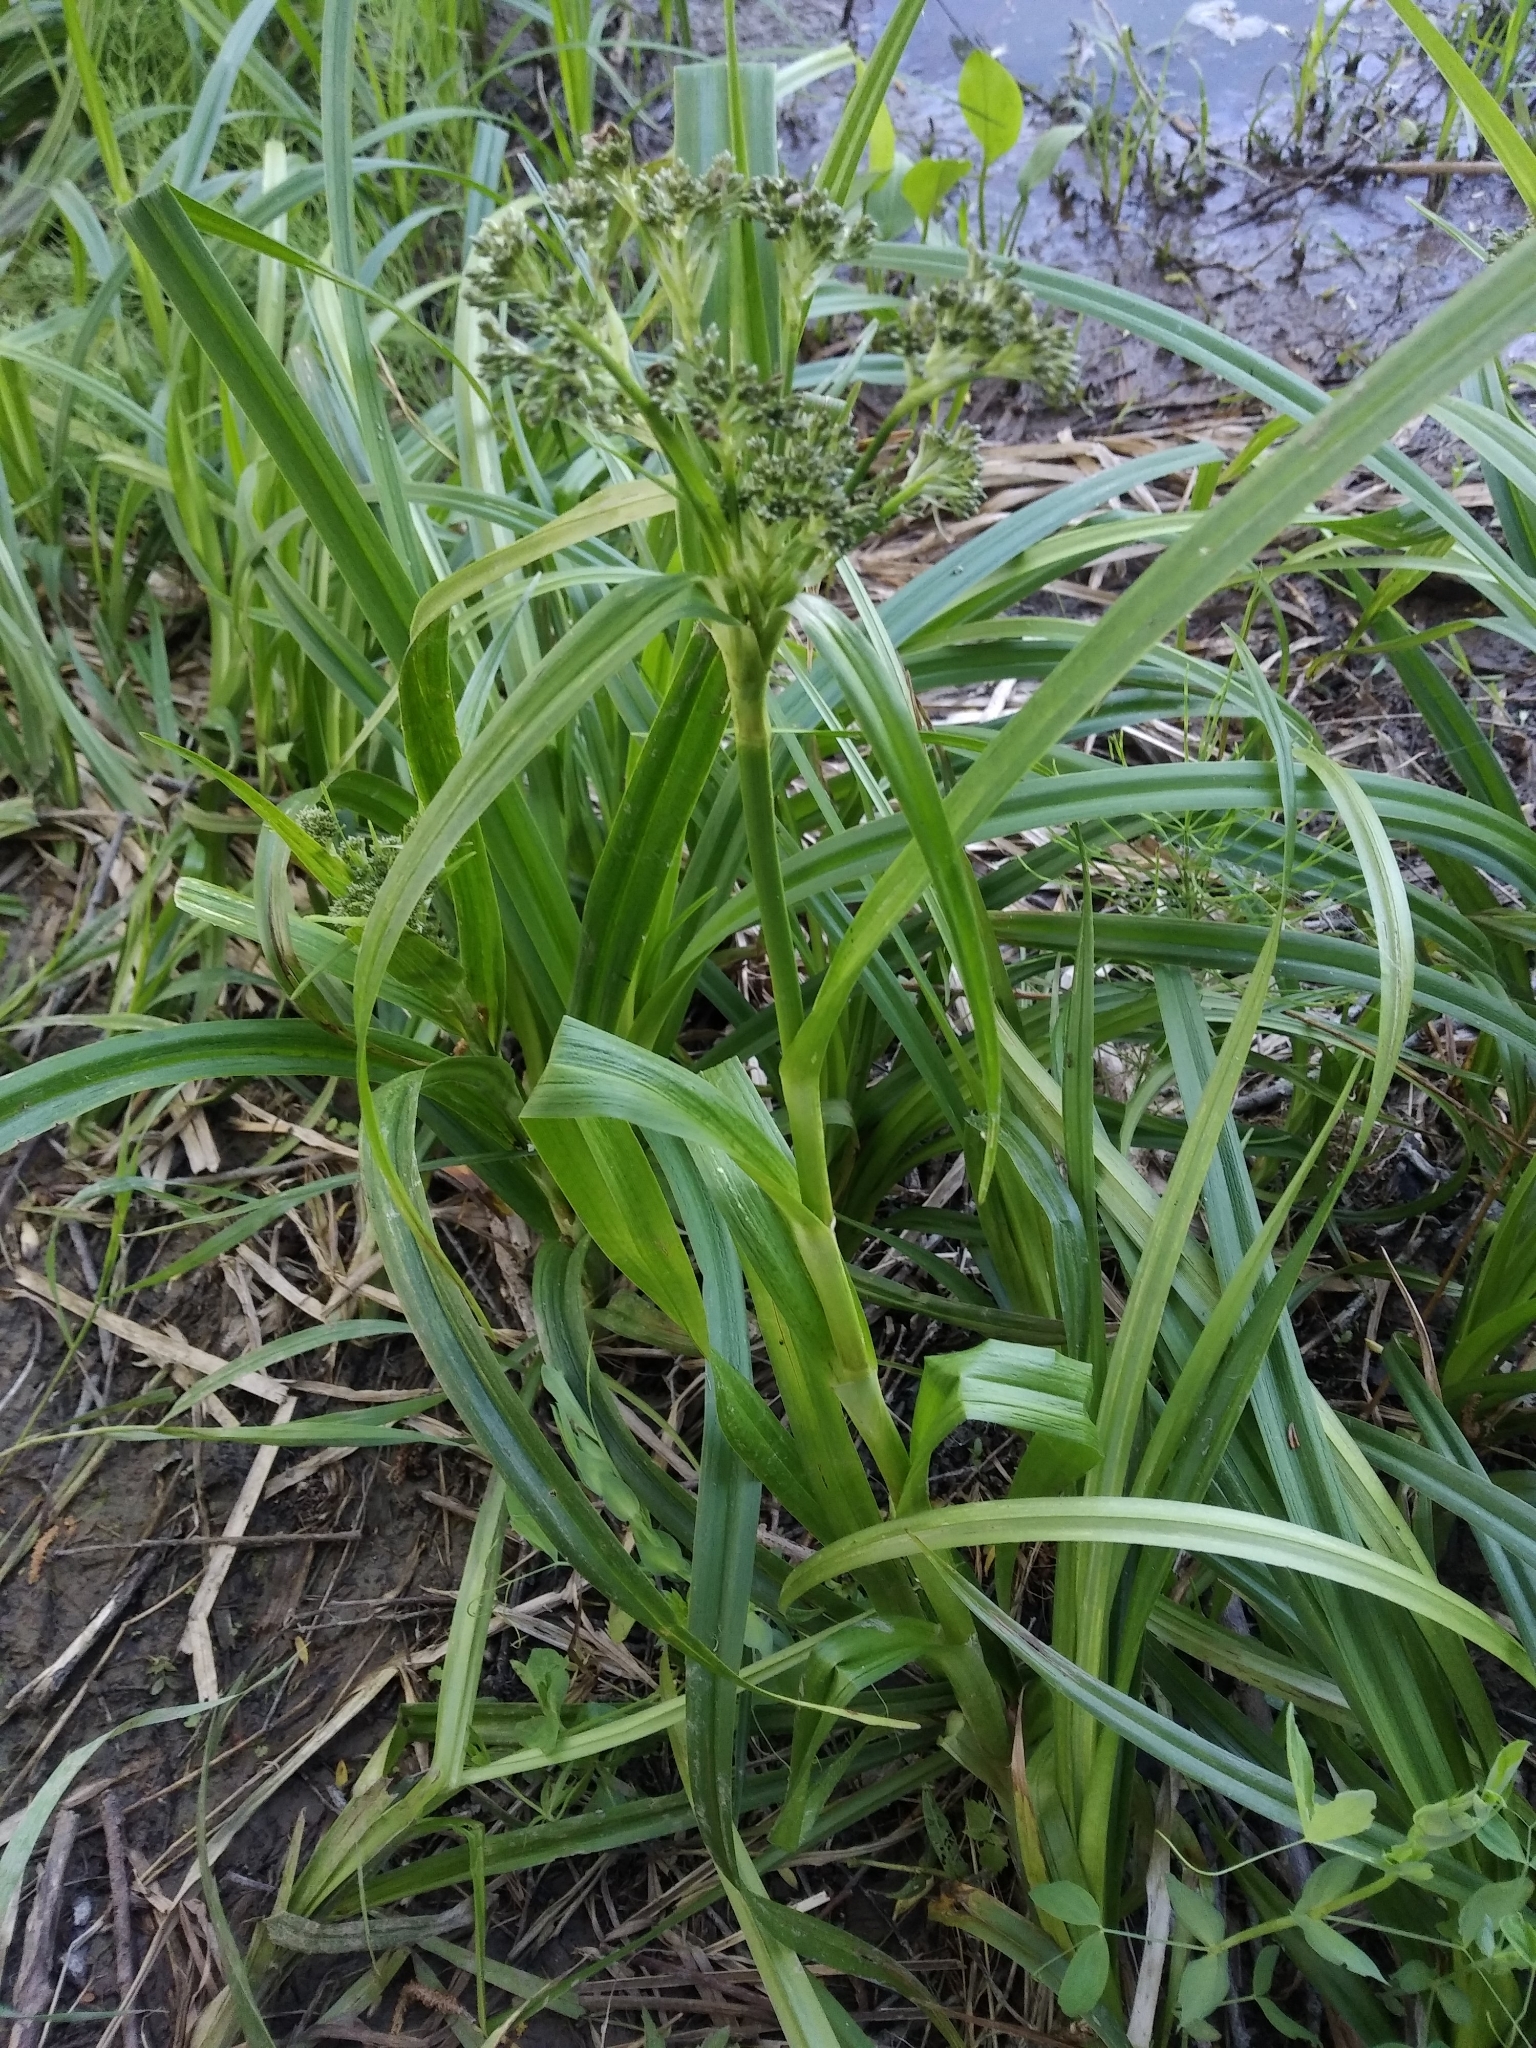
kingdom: Plantae
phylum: Tracheophyta
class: Liliopsida
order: Poales
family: Cyperaceae
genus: Scirpus
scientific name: Scirpus sylvaticus
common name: Wood club-rush
